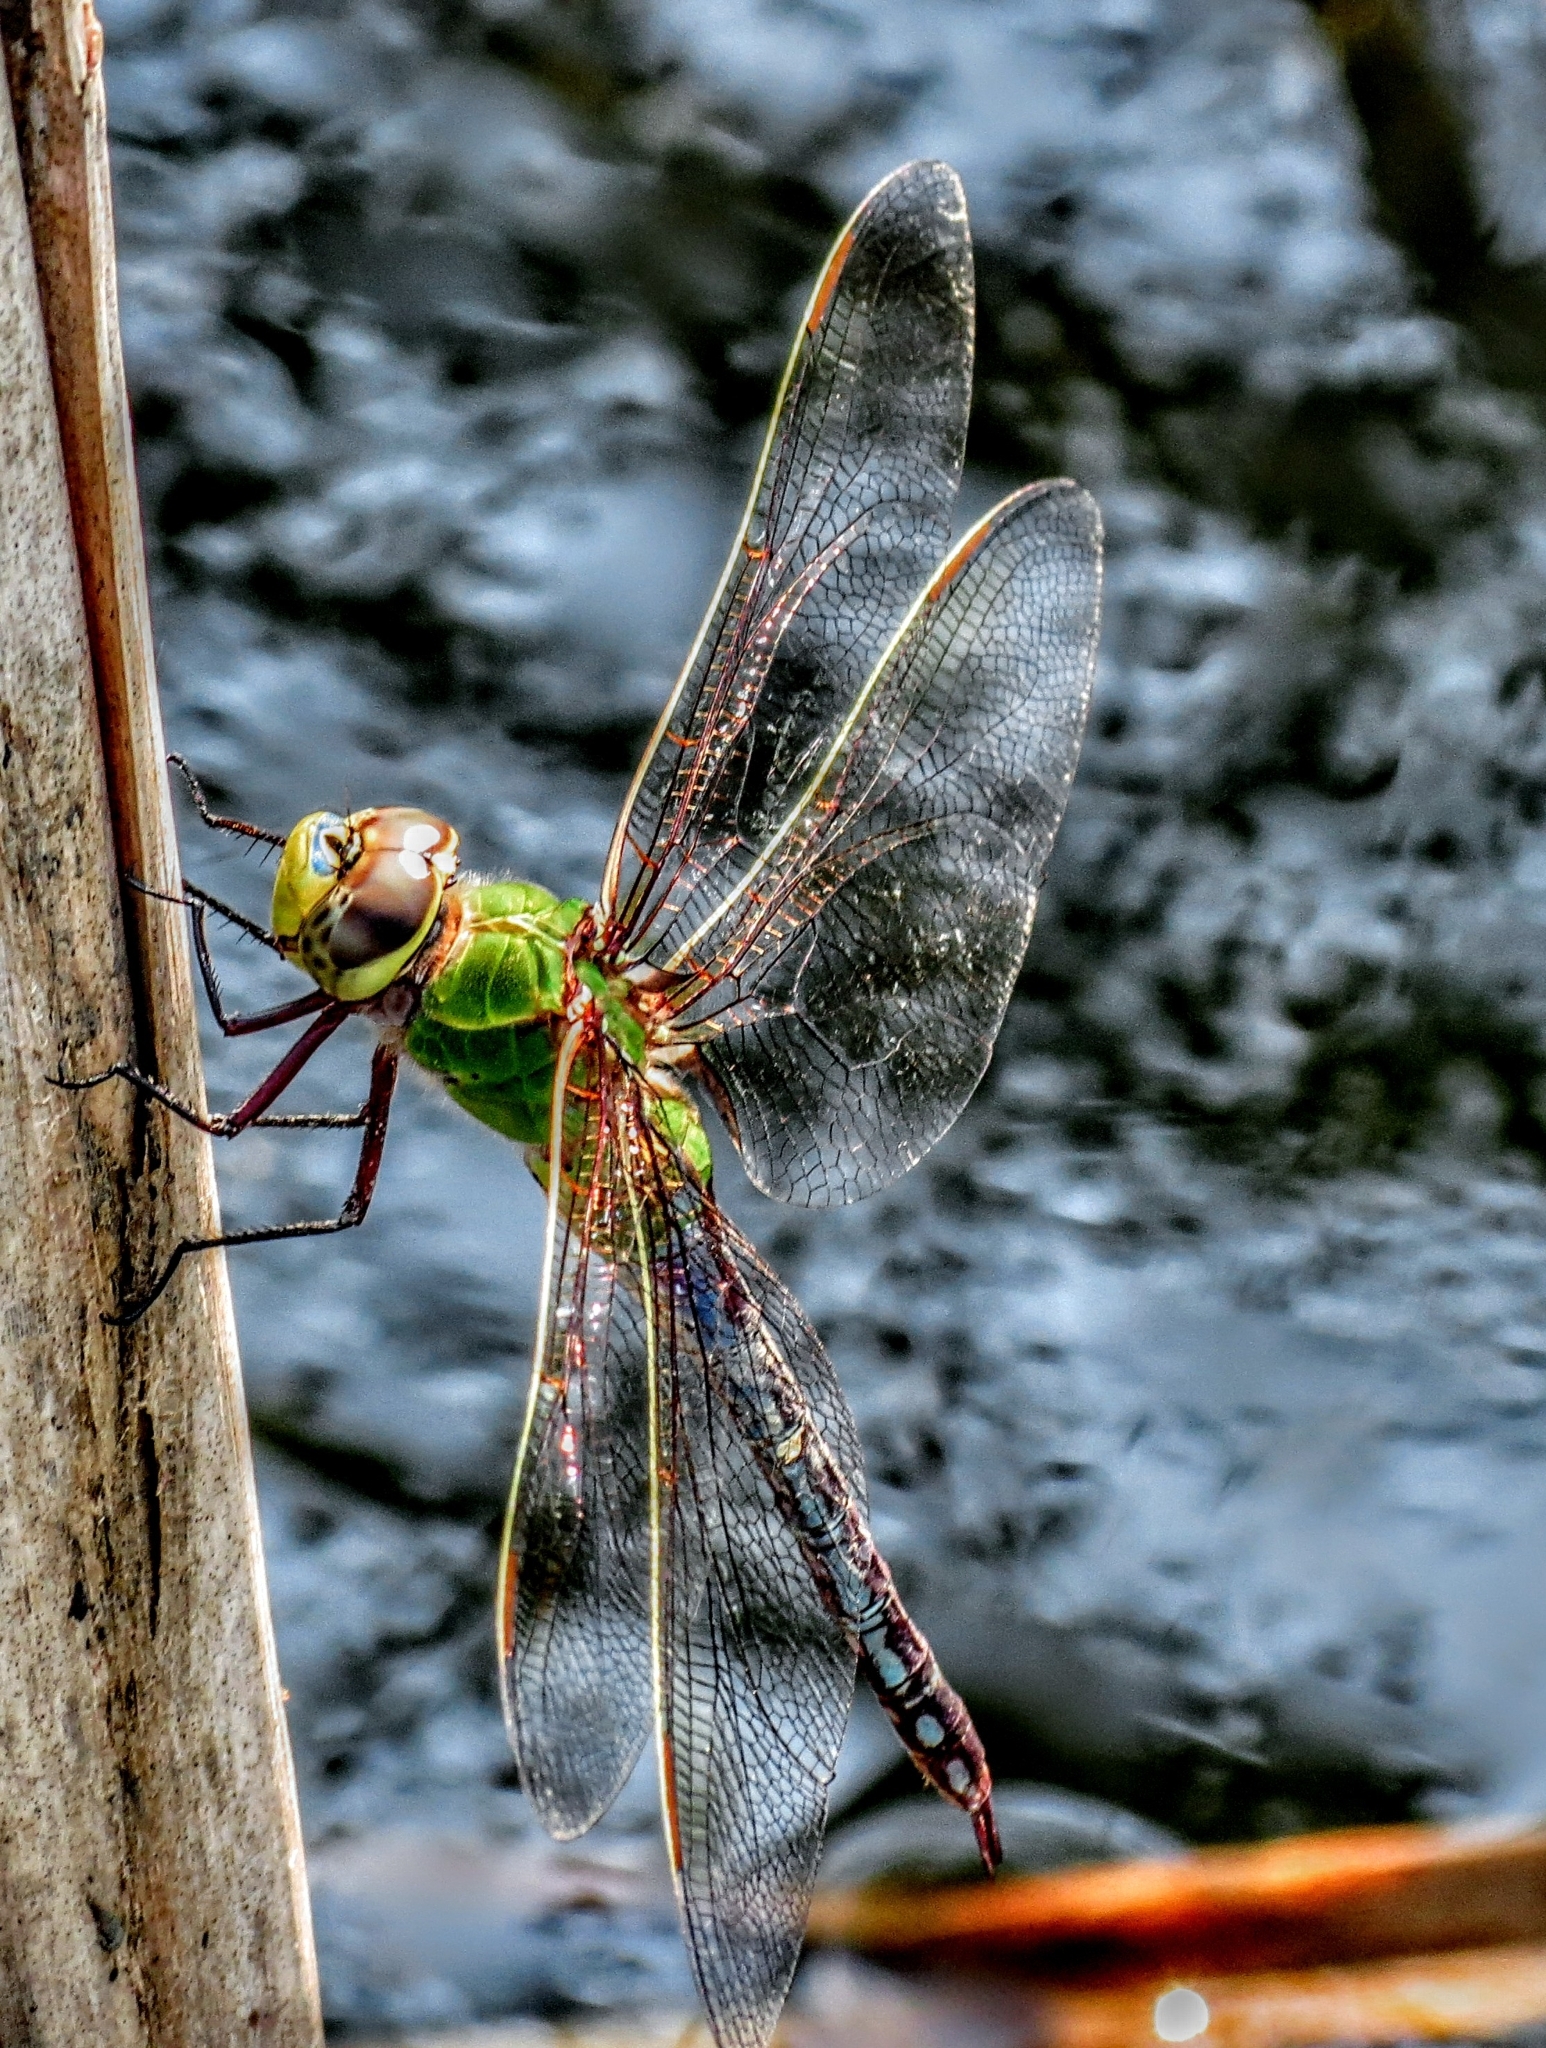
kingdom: Animalia
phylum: Arthropoda
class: Insecta
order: Odonata
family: Aeshnidae
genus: Anax
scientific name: Anax junius
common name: Common green darner
